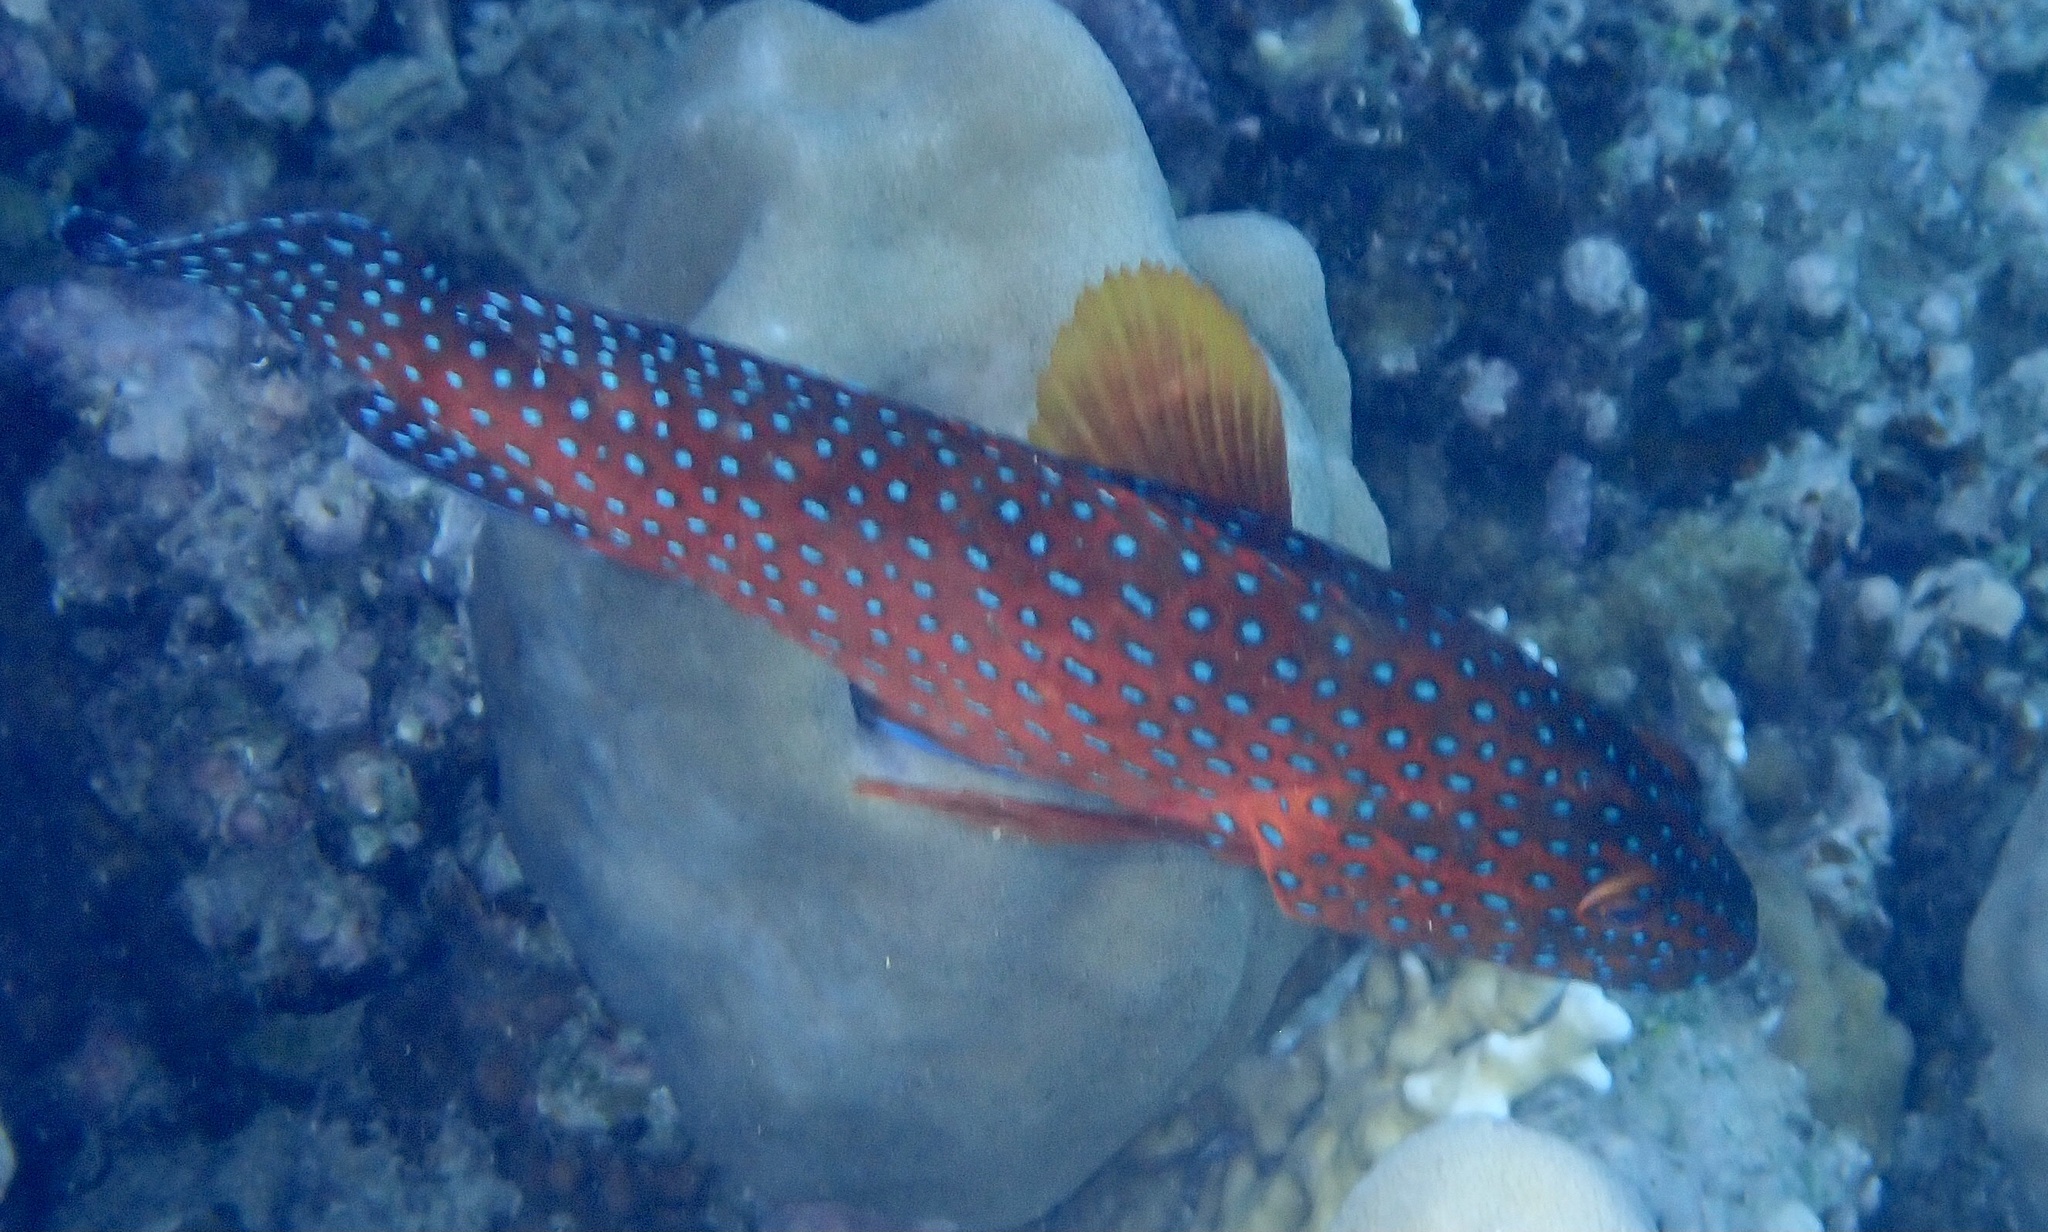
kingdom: Animalia
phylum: Chordata
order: Perciformes
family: Serranidae
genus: Cephalopholis
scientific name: Cephalopholis miniata
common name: Coral hind
